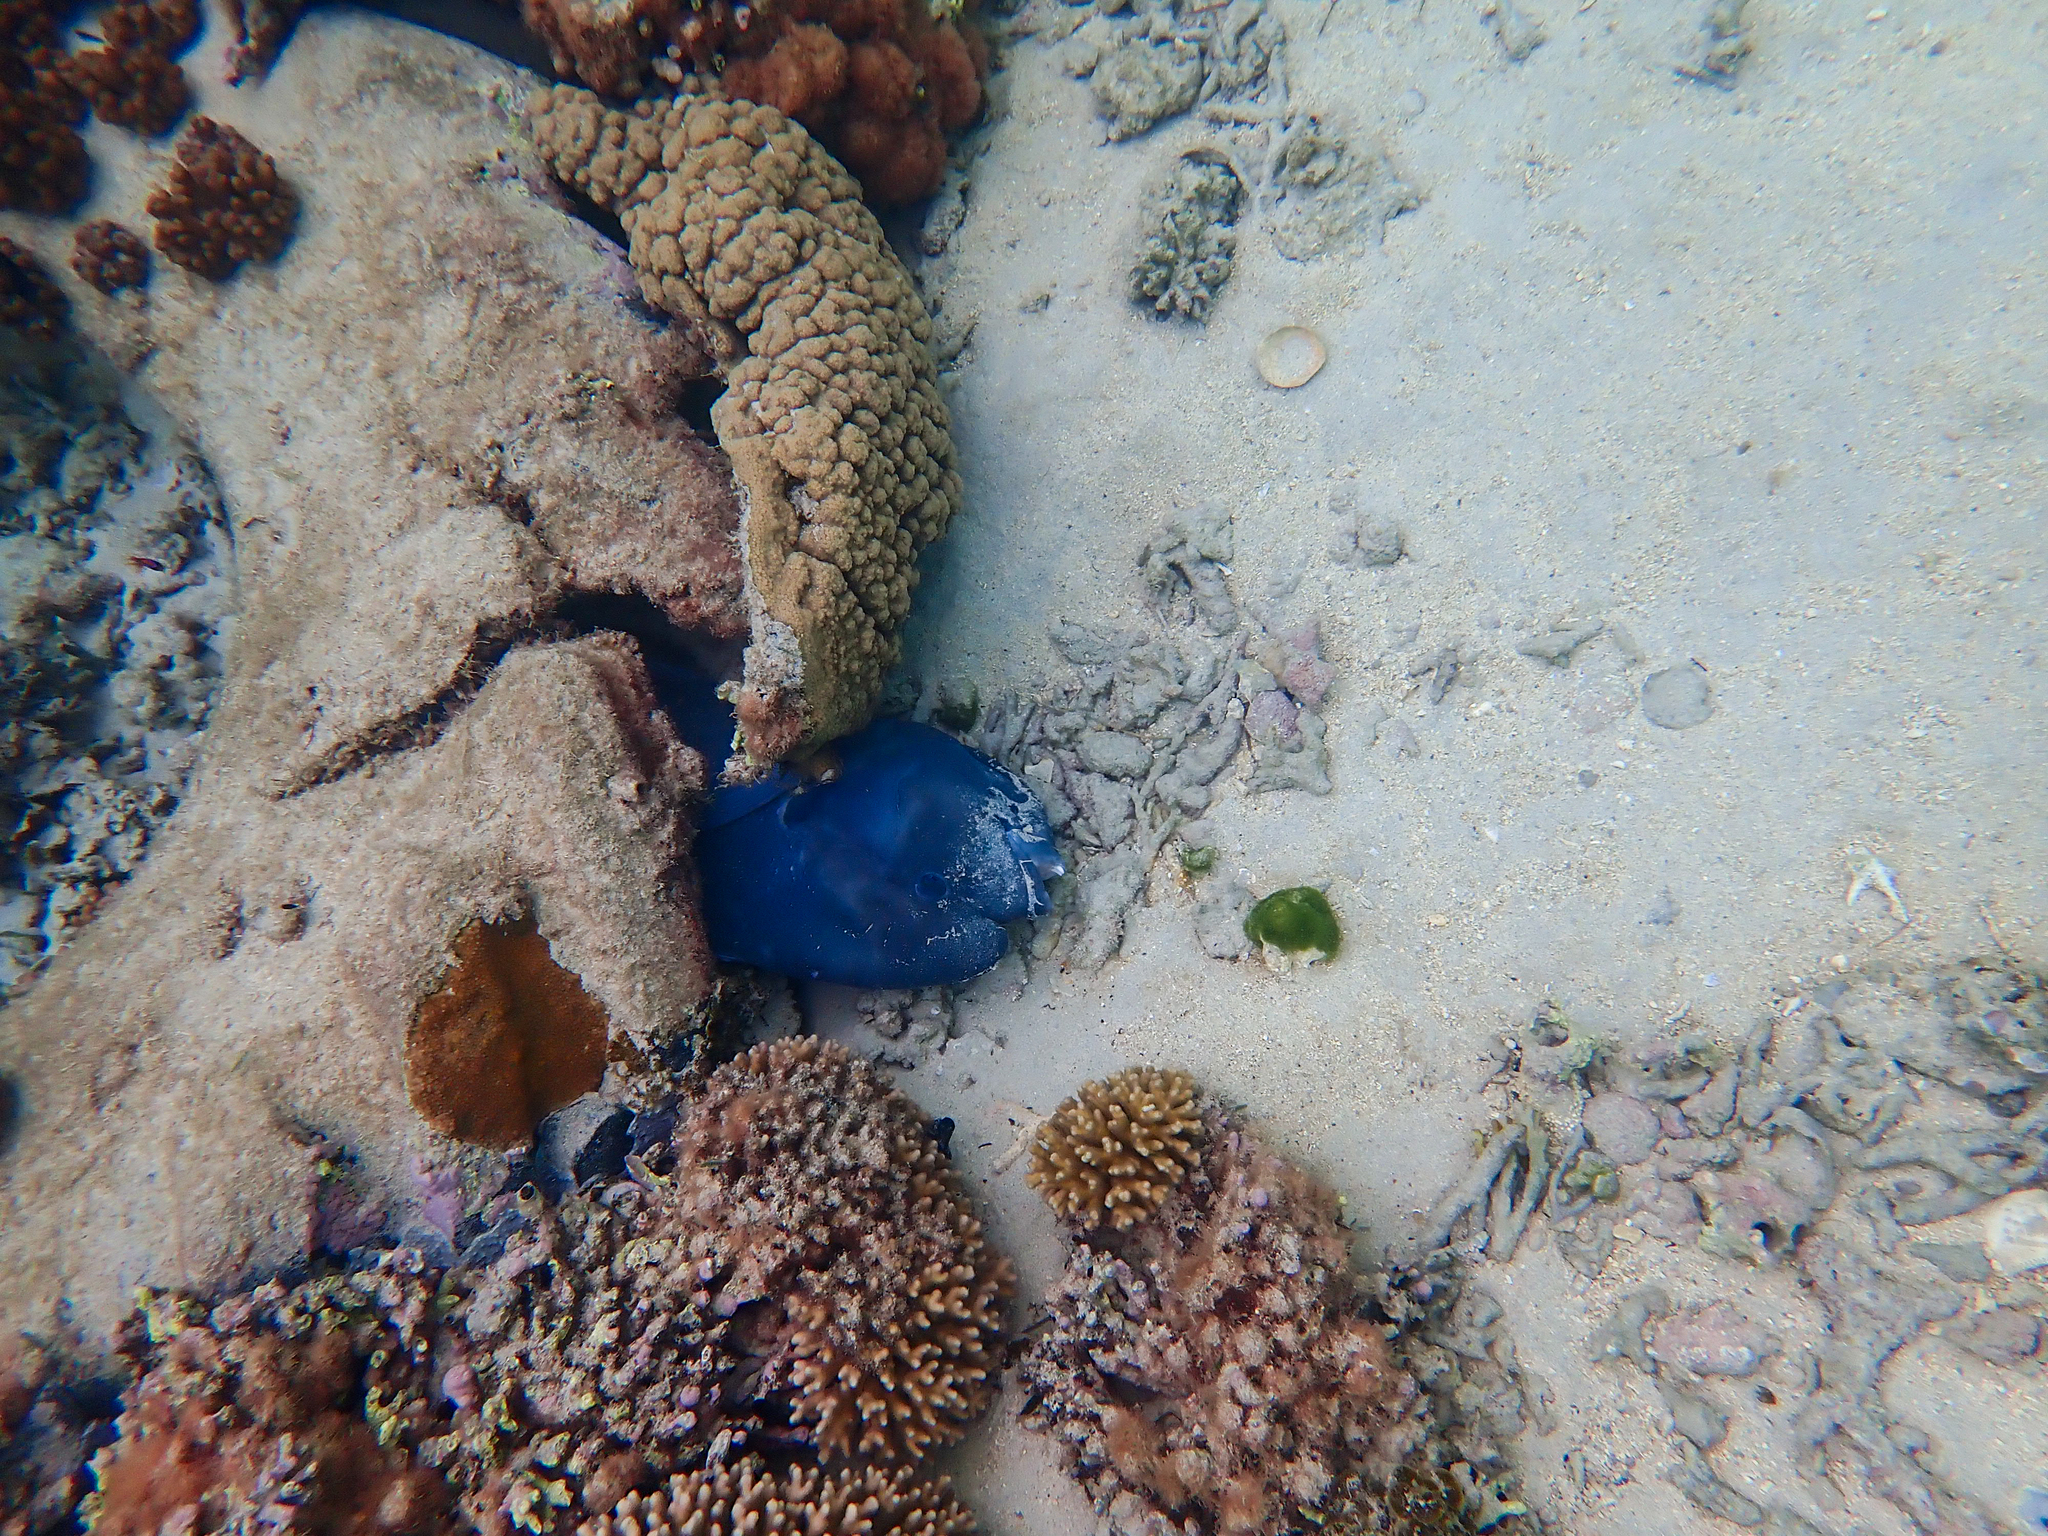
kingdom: Animalia
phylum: Chordata
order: Perciformes
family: Labridae
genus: Coris
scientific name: Coris bulbifrons
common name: Doubleheader
